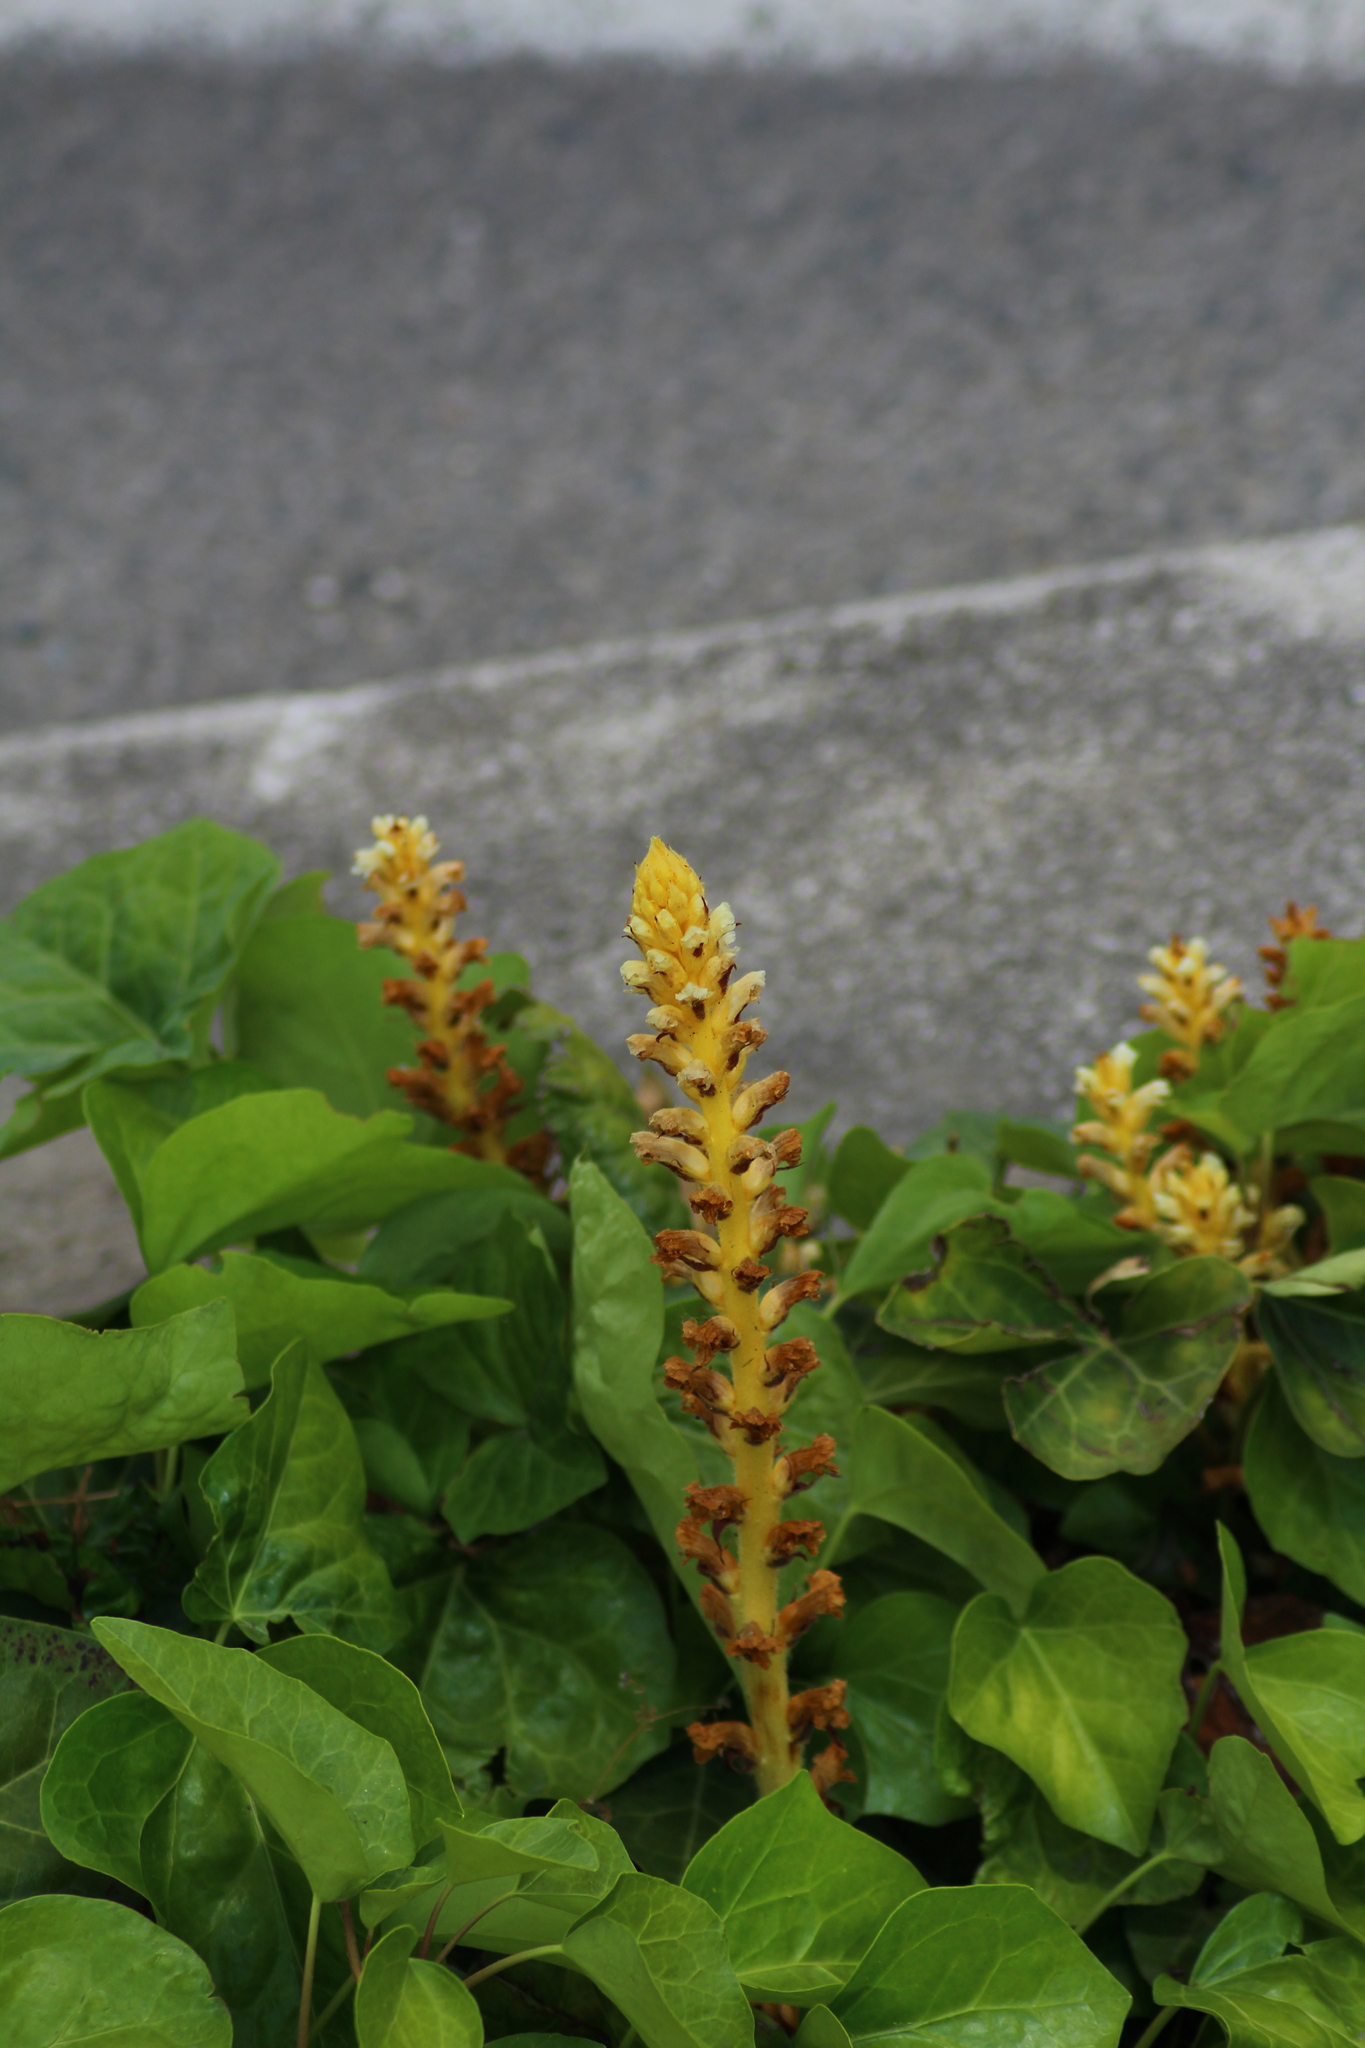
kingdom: Plantae
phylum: Tracheophyta
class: Magnoliopsida
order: Lamiales
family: Orobanchaceae
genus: Orobanche
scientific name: Orobanche hederae
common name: Ivy broomrape
